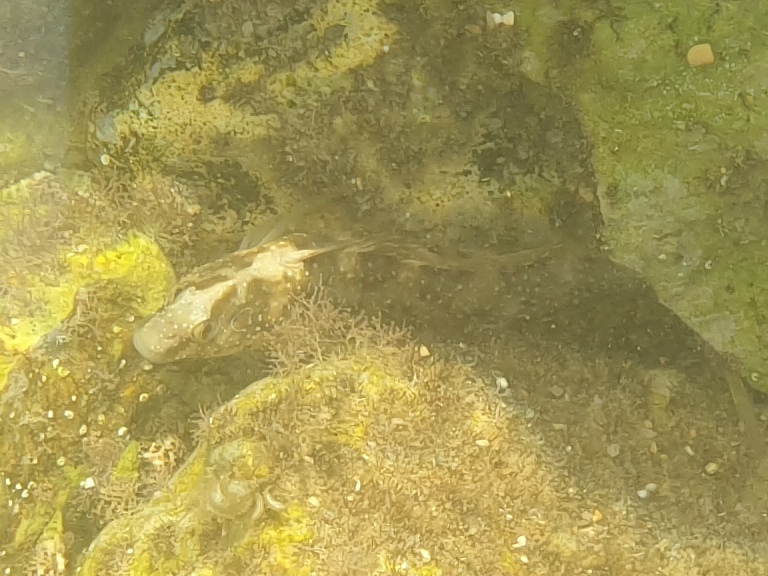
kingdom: Animalia
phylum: Chordata
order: Perciformes
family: Blenniidae
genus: Salaria
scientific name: Salaria pavo
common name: Peacock blenny
